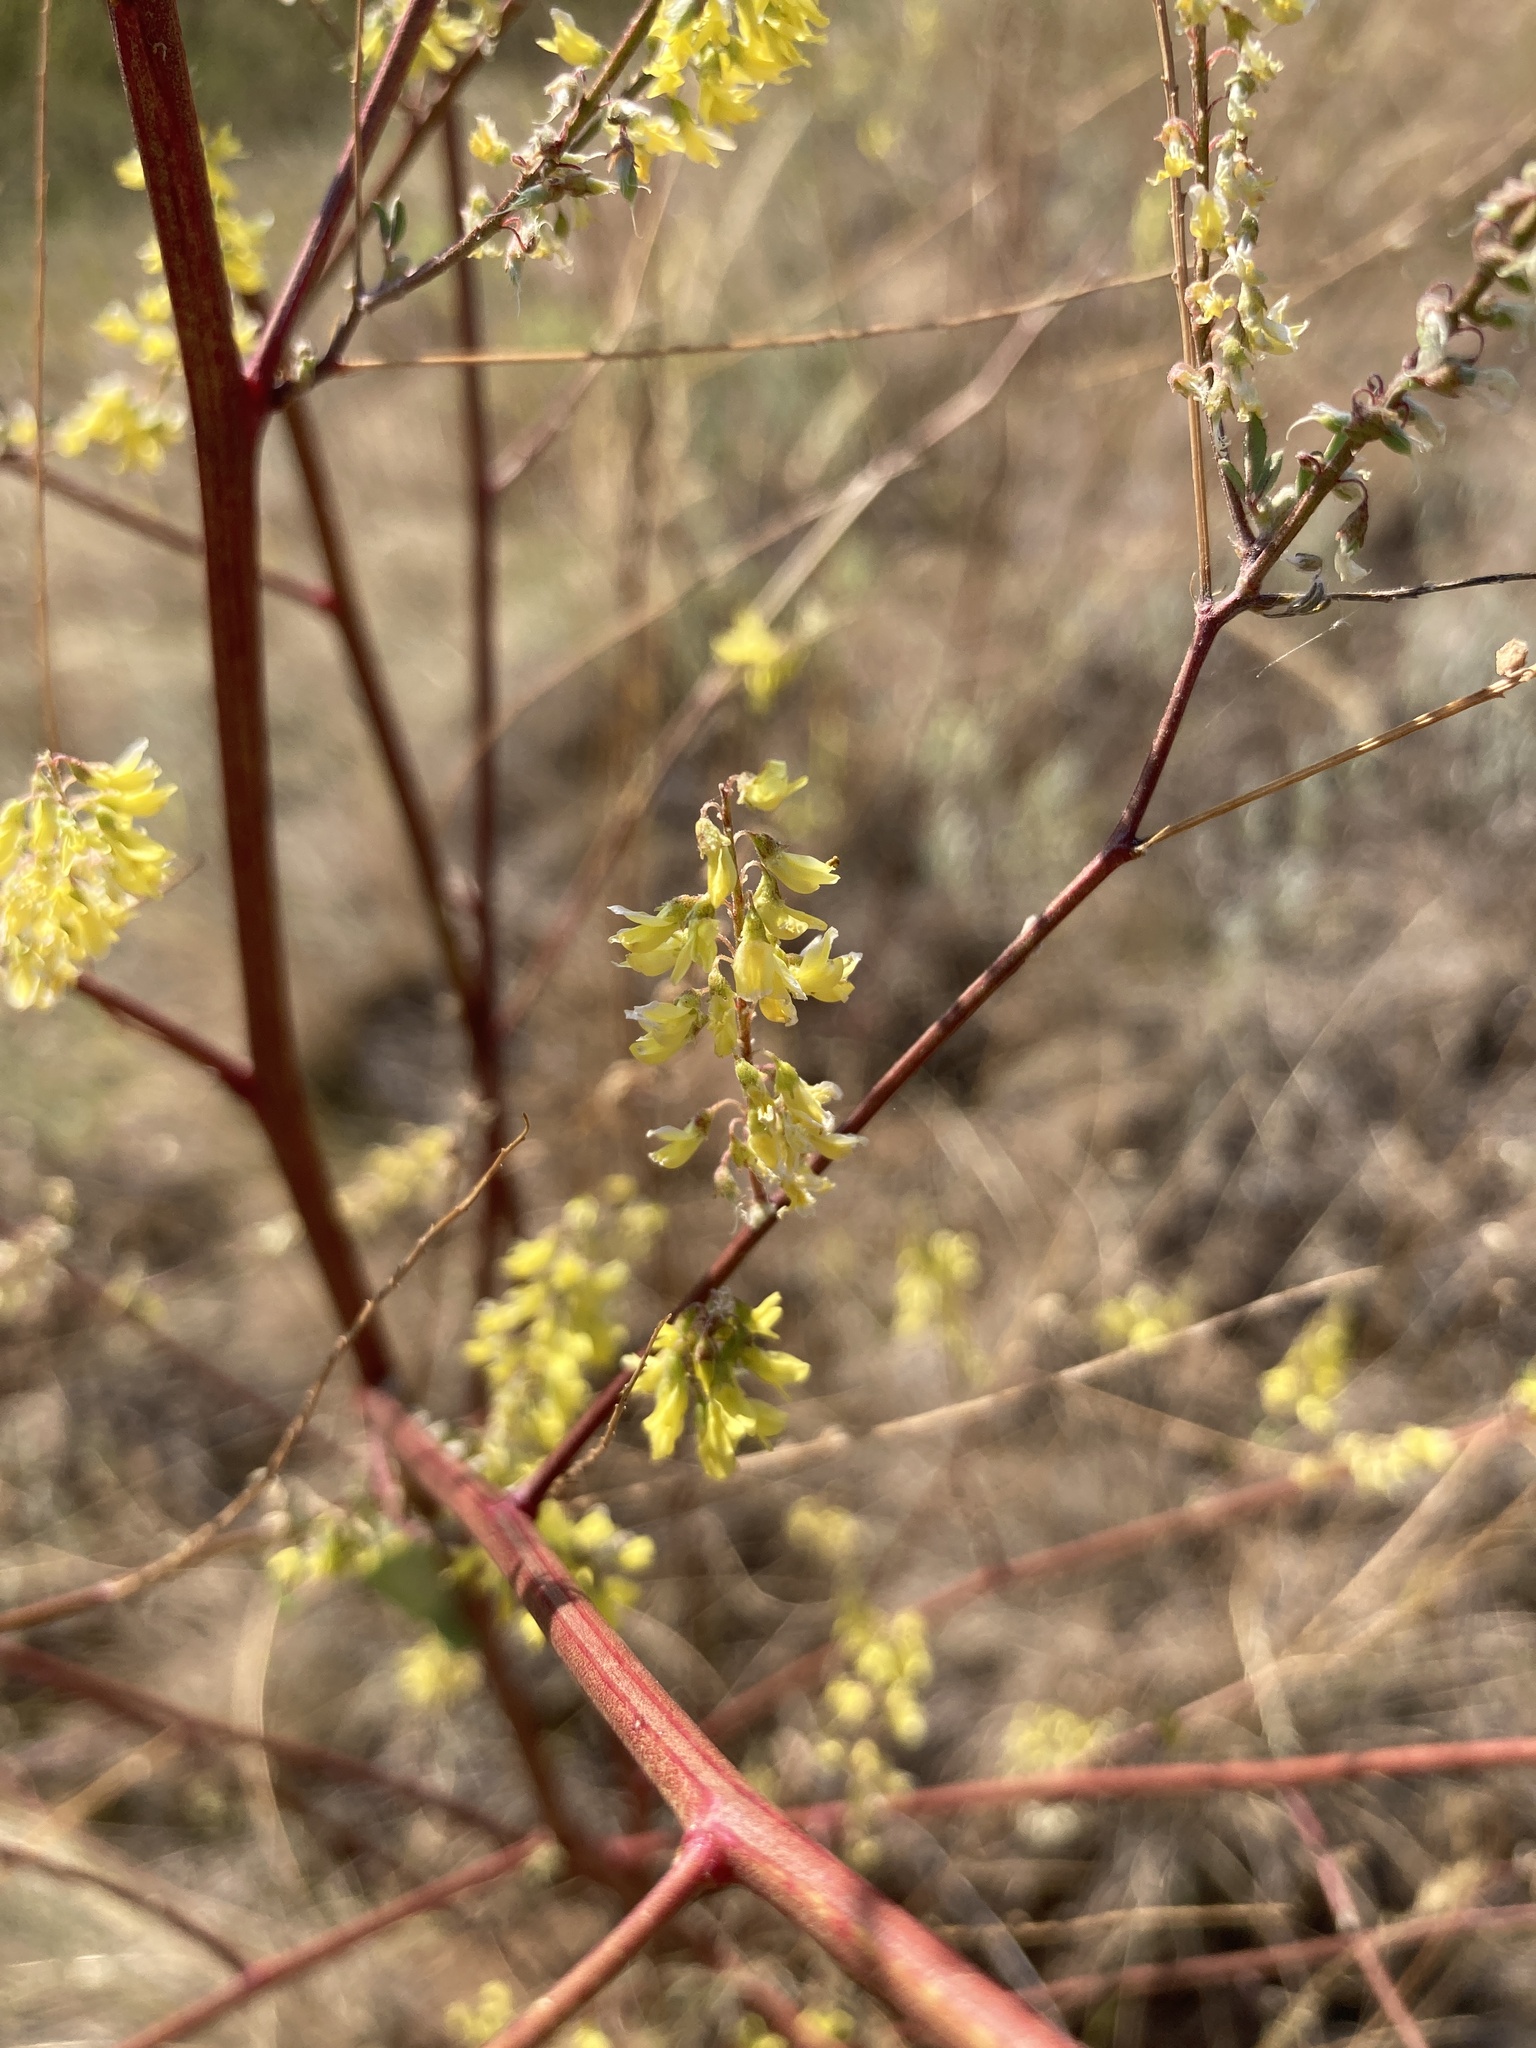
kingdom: Plantae
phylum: Tracheophyta
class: Magnoliopsida
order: Fabales
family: Fabaceae
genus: Melilotus
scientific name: Melilotus officinalis
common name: Sweetclover
